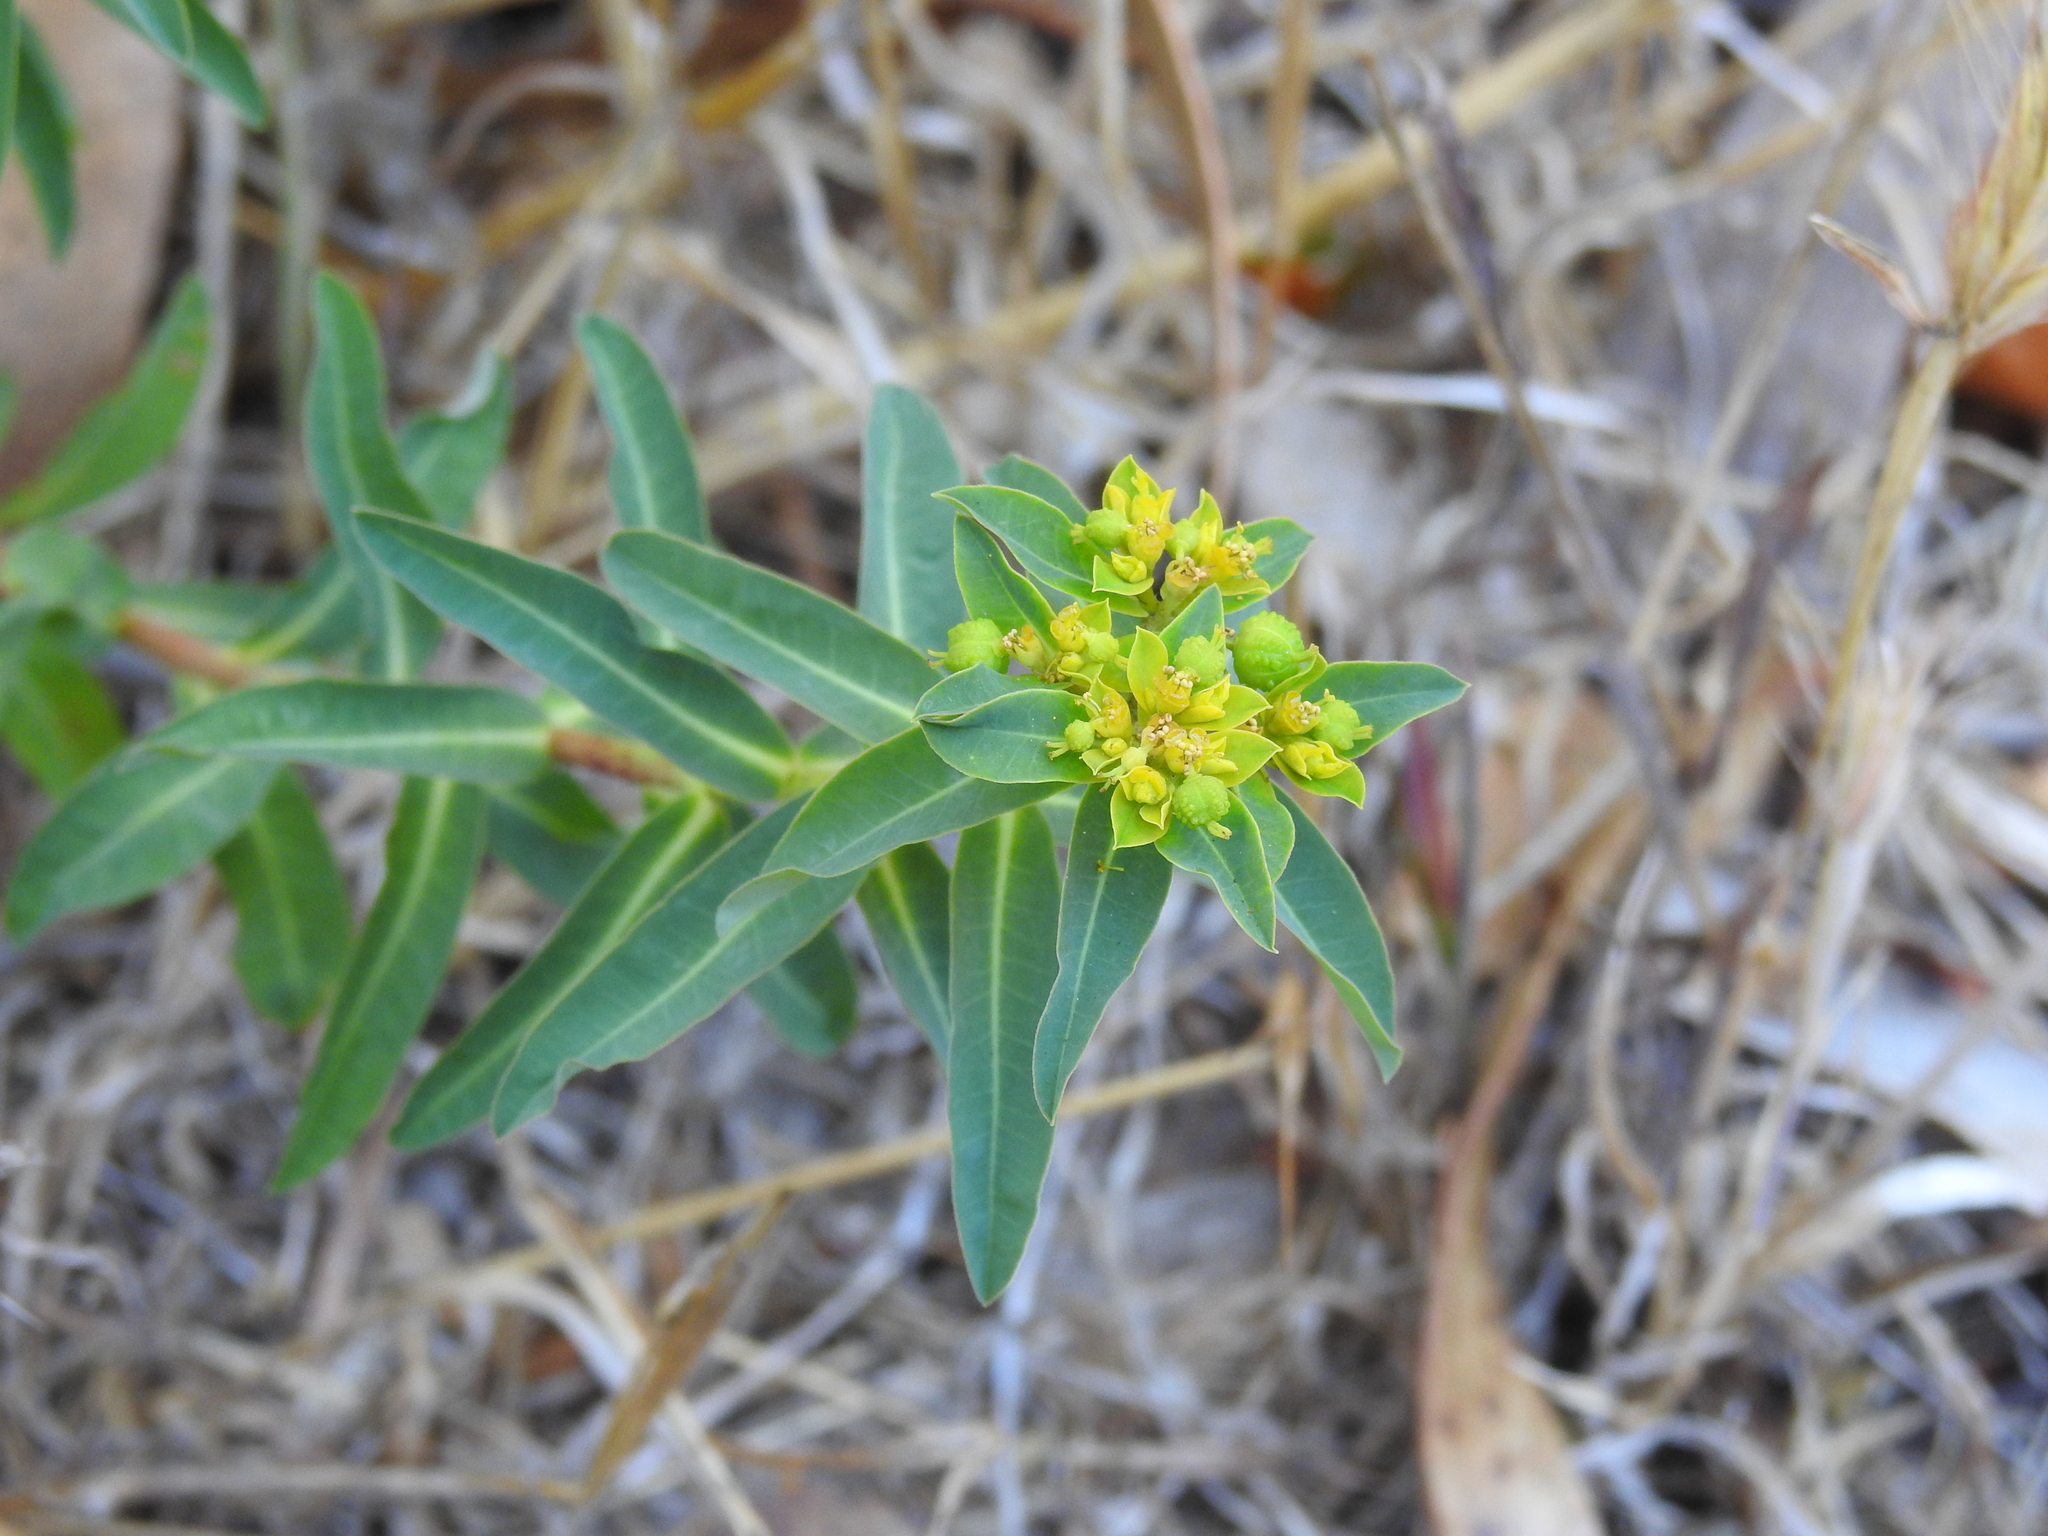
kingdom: Plantae
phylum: Tracheophyta
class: Magnoliopsida
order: Malpighiales
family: Euphorbiaceae
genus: Euphorbia
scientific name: Euphorbia oblongata
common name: Balkan spurge
